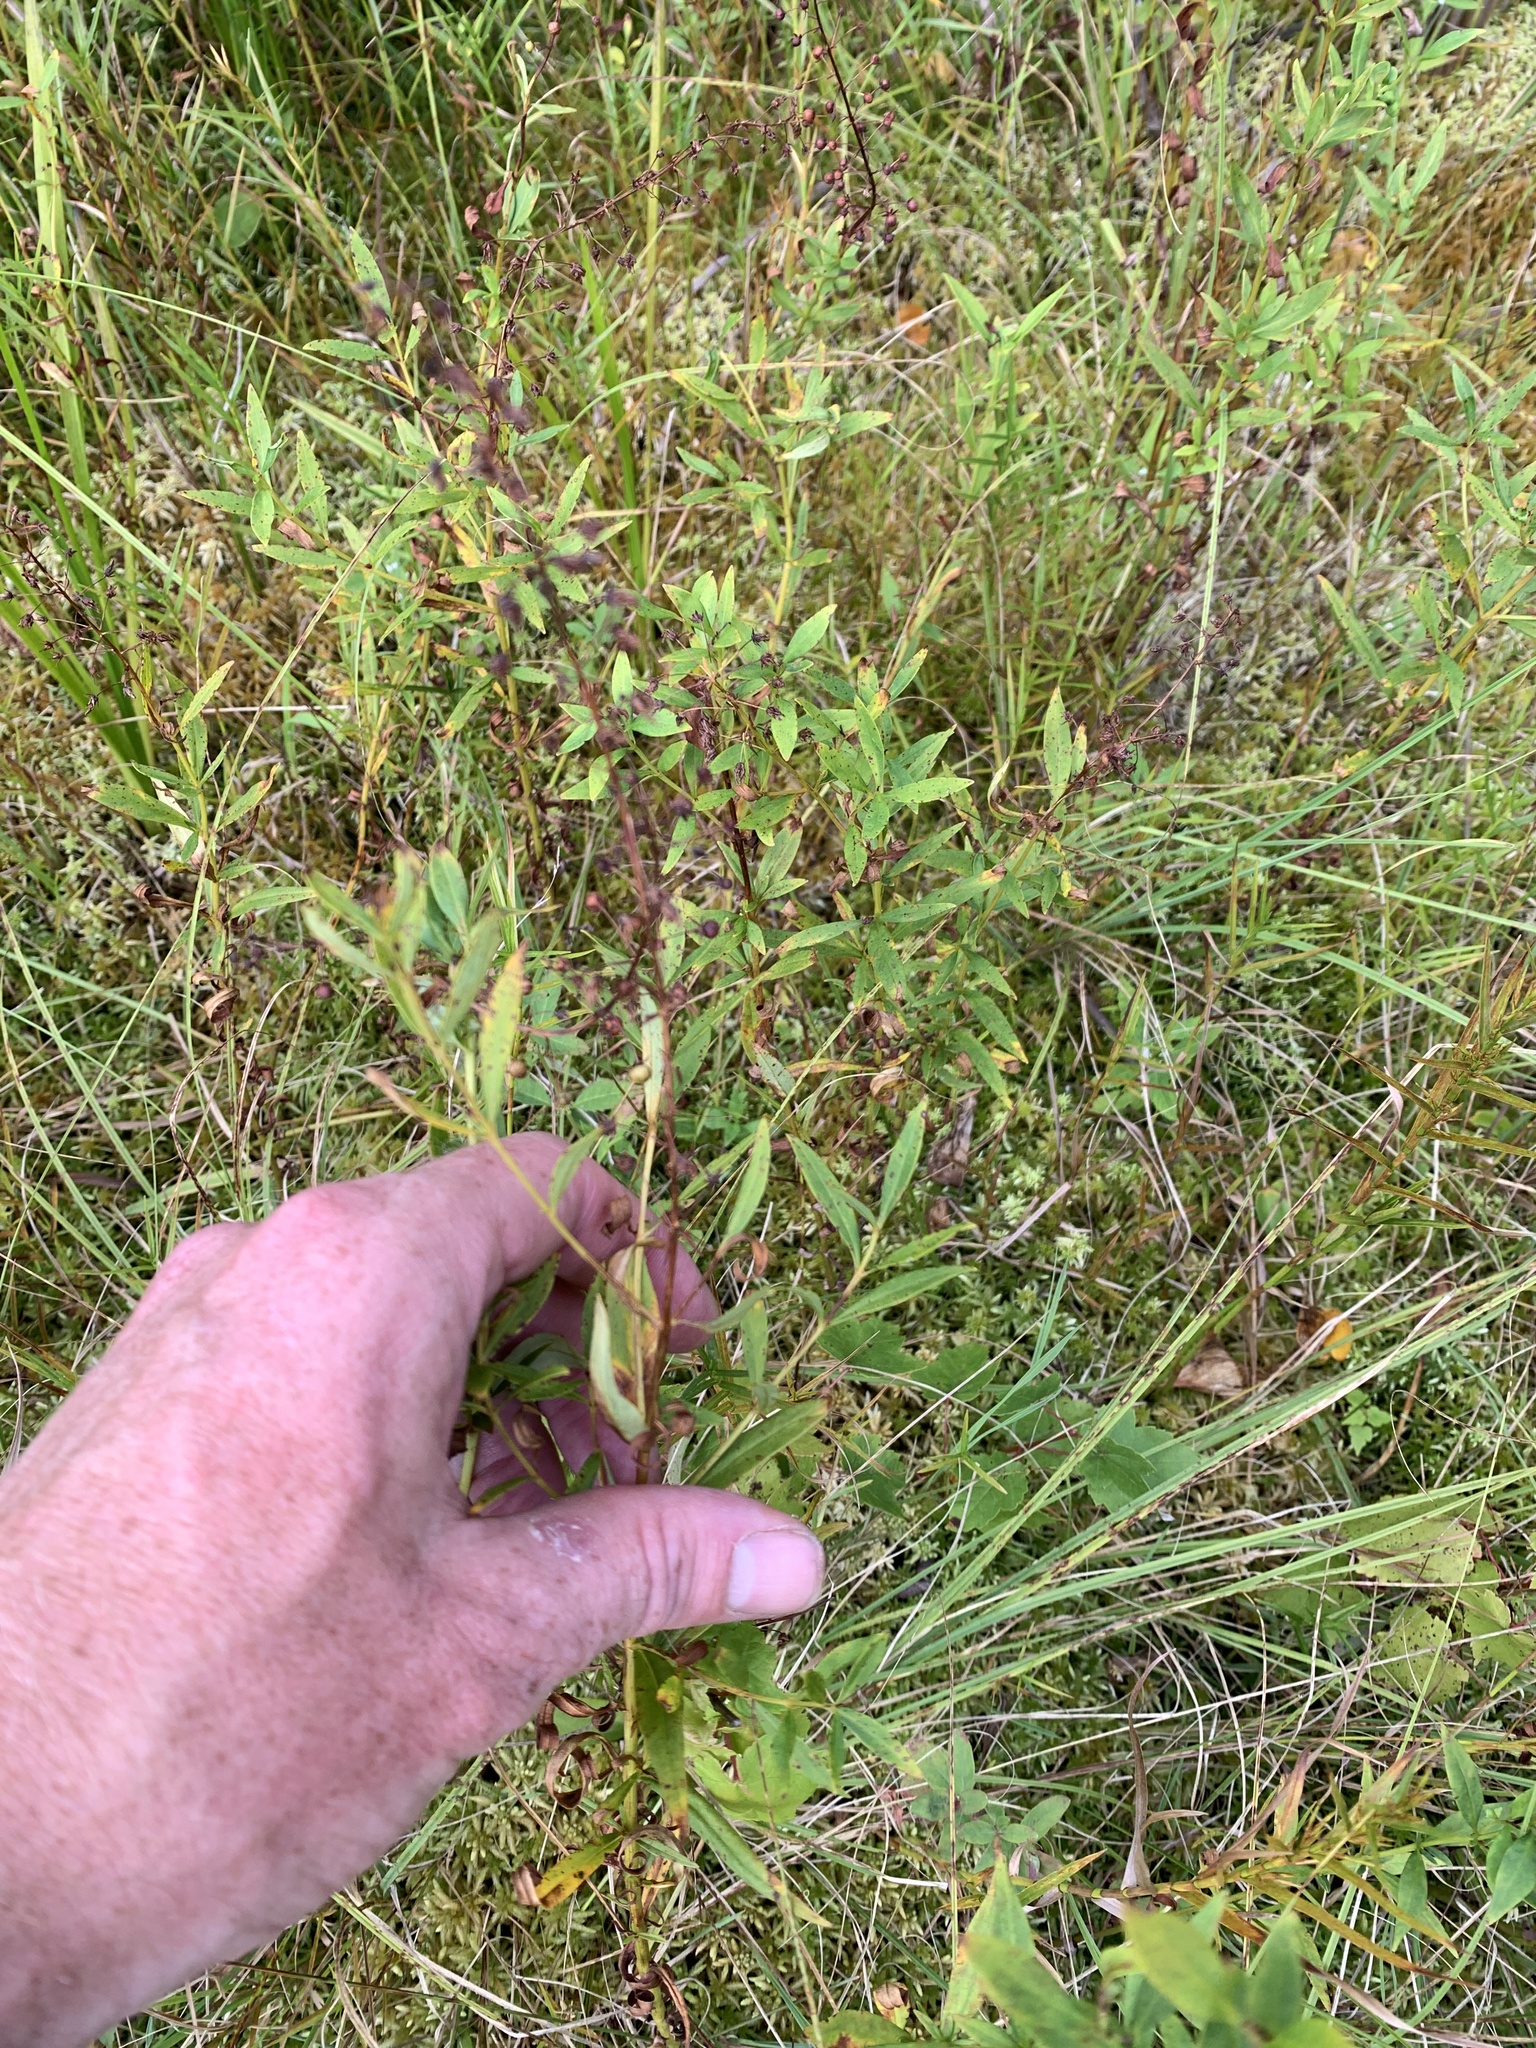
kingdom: Plantae
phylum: Tracheophyta
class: Magnoliopsida
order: Ericales
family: Primulaceae
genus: Lysimachia
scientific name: Lysimachia terrestris
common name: Lake loosestrife
